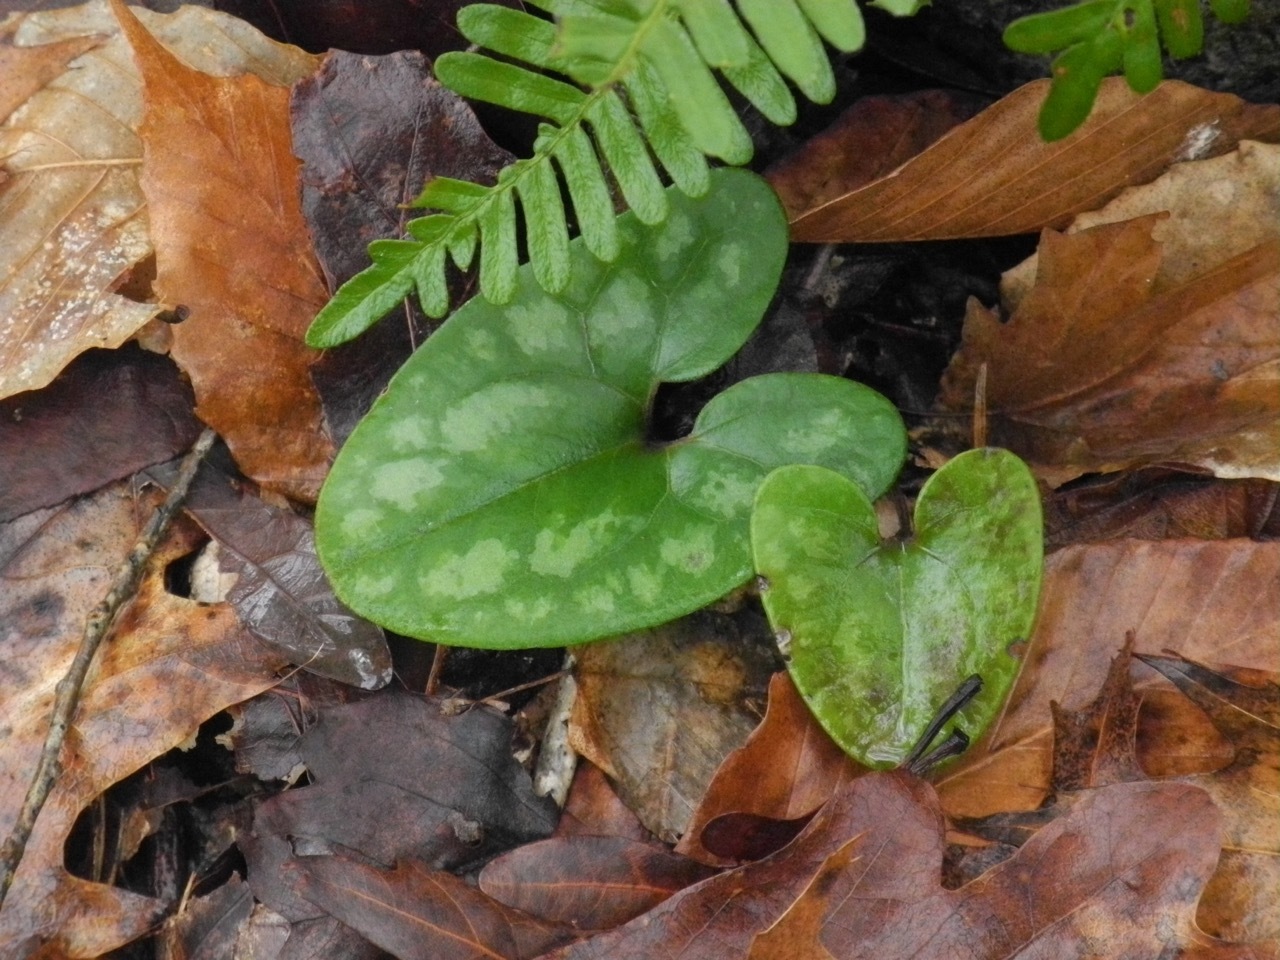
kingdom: Plantae
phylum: Tracheophyta
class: Magnoliopsida
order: Piperales
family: Aristolochiaceae
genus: Hexastylis
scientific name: Hexastylis arifolia
